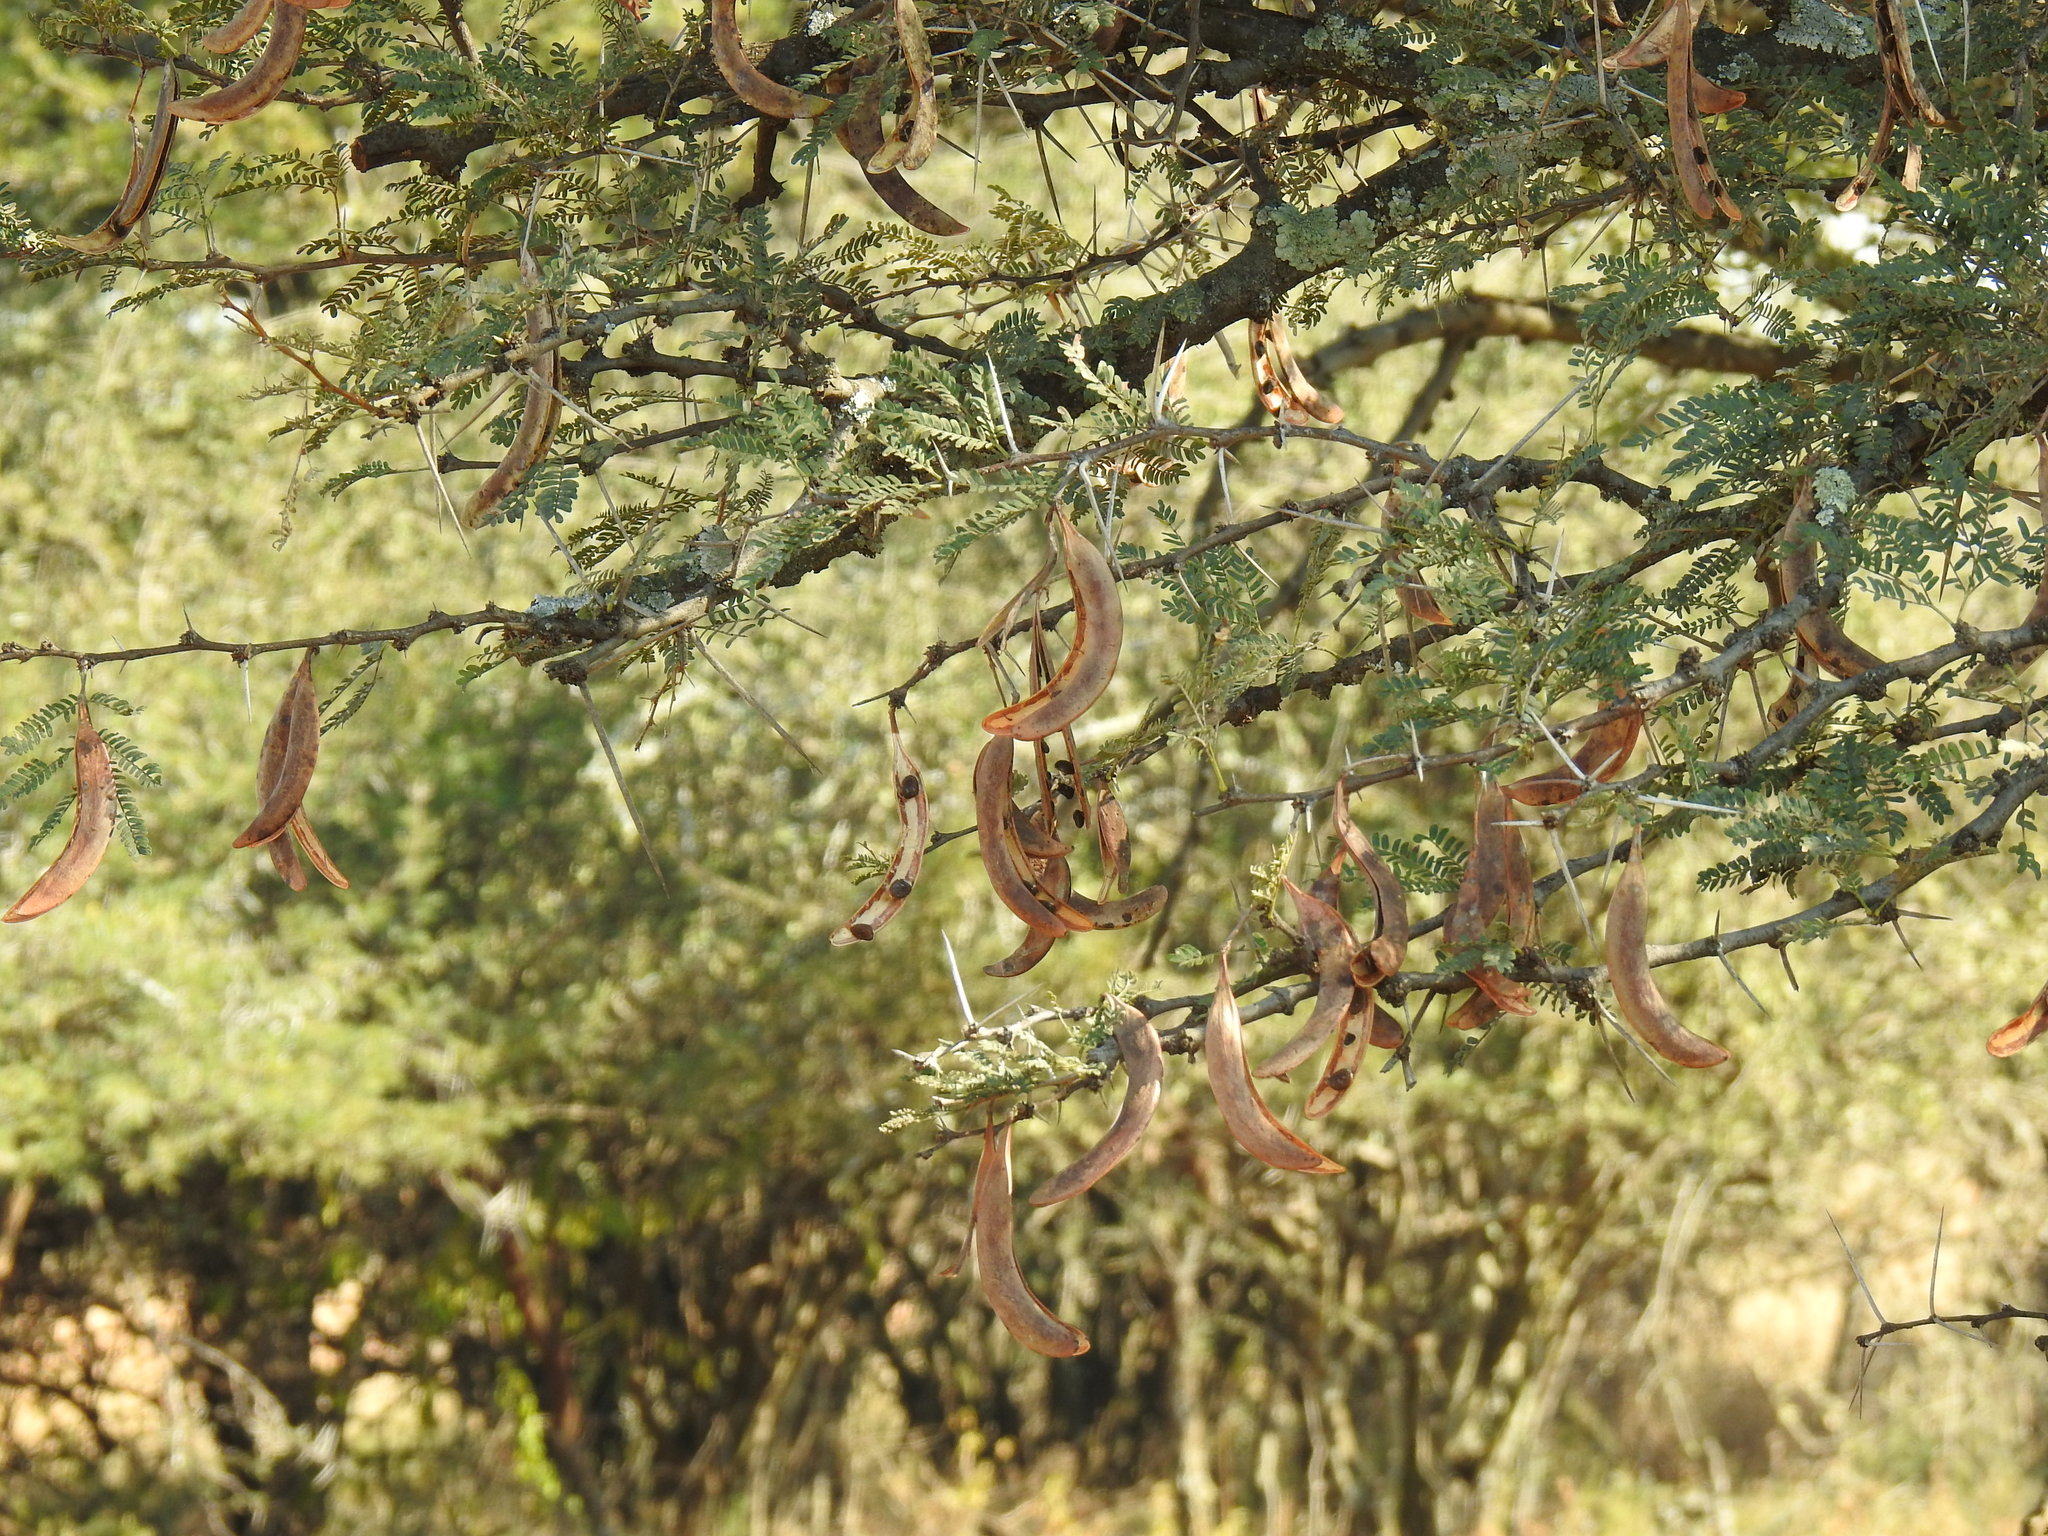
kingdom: Plantae
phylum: Tracheophyta
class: Magnoliopsida
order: Fabales
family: Fabaceae
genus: Vachellia
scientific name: Vachellia robusta
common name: Ankle thorn
